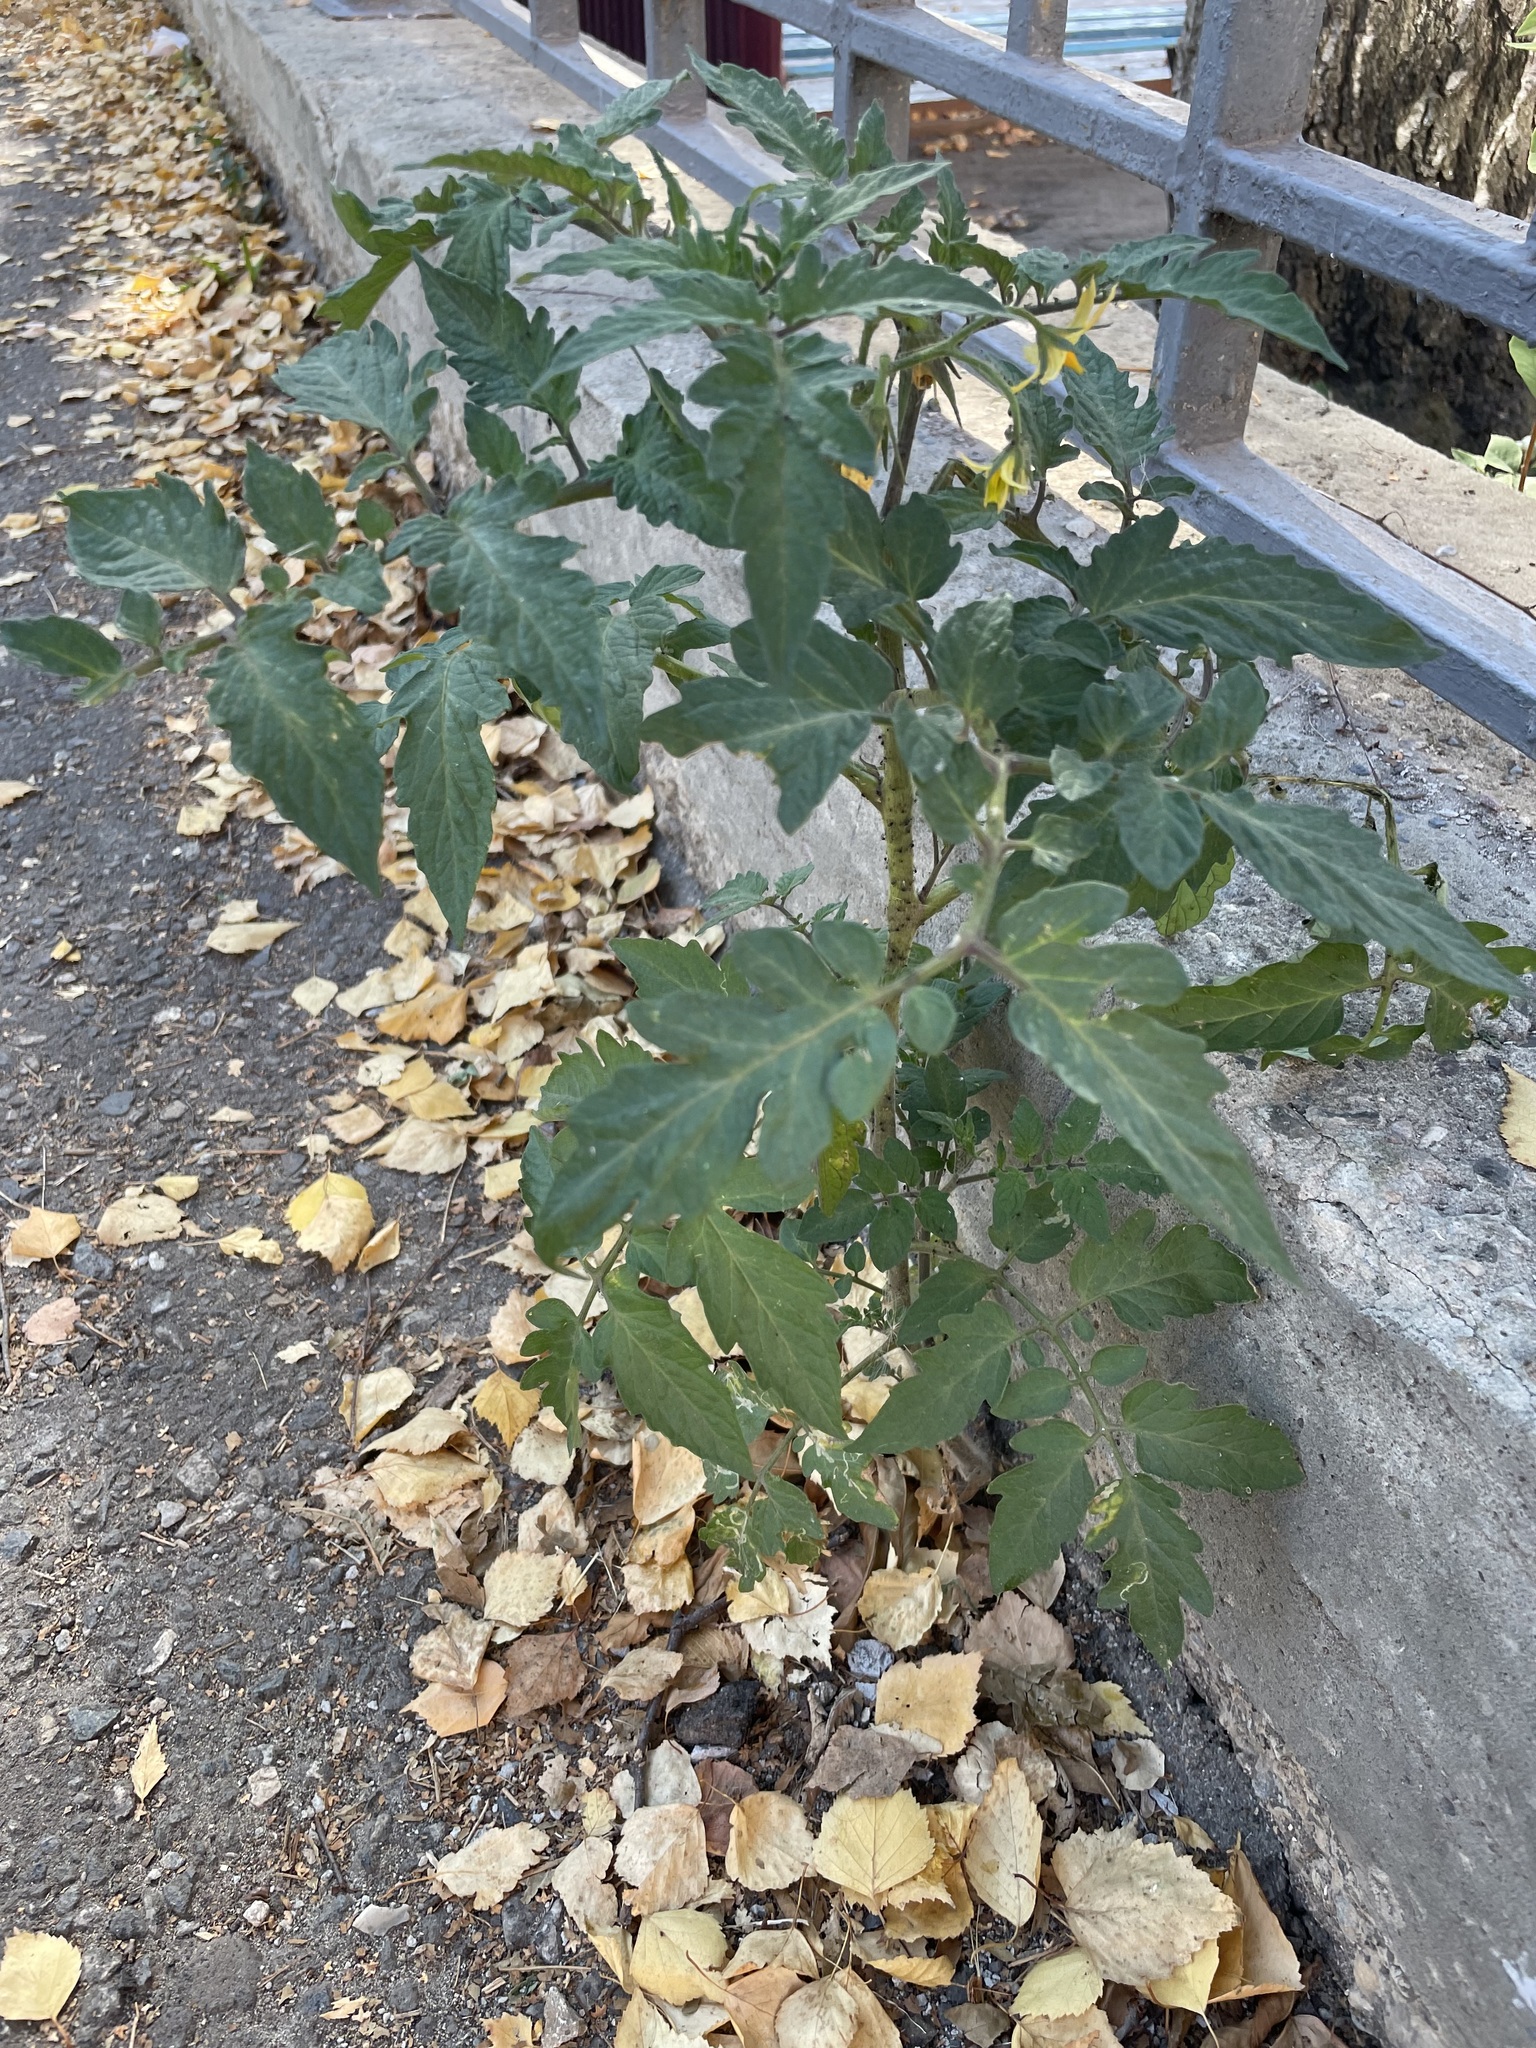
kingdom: Plantae
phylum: Tracheophyta
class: Magnoliopsida
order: Solanales
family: Solanaceae
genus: Solanum
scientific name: Solanum lycopersicum
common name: Garden tomato
